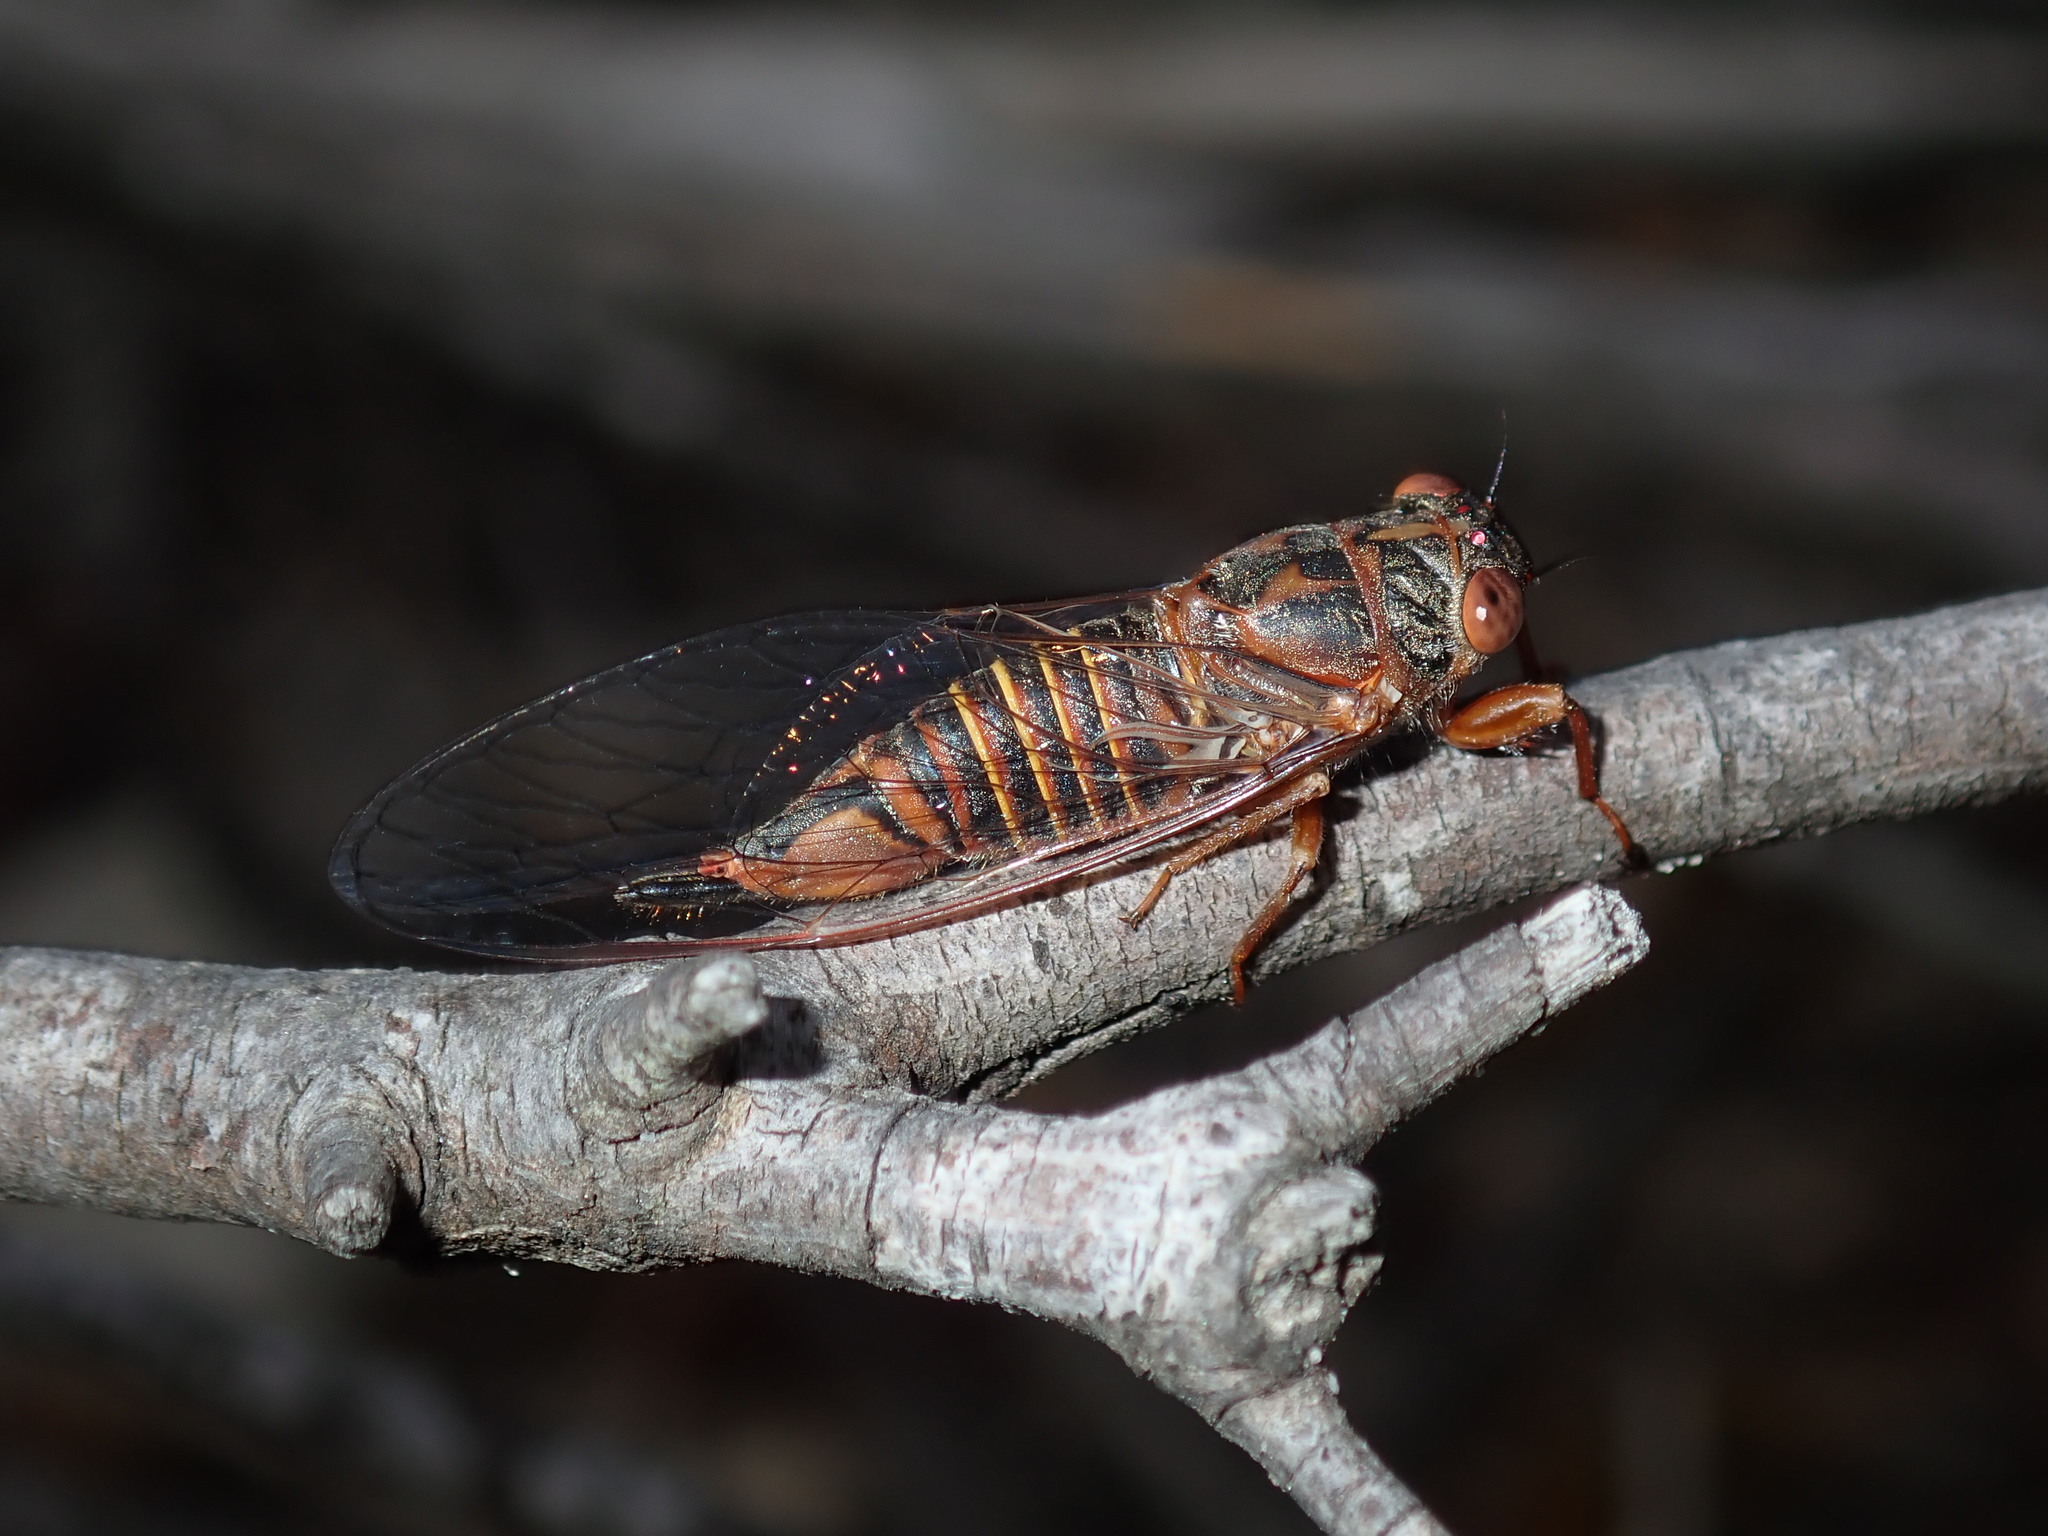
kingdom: Animalia
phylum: Arthropoda
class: Insecta
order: Hemiptera
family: Cicadidae
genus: Palapsalta
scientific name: Palapsalta circumdata
